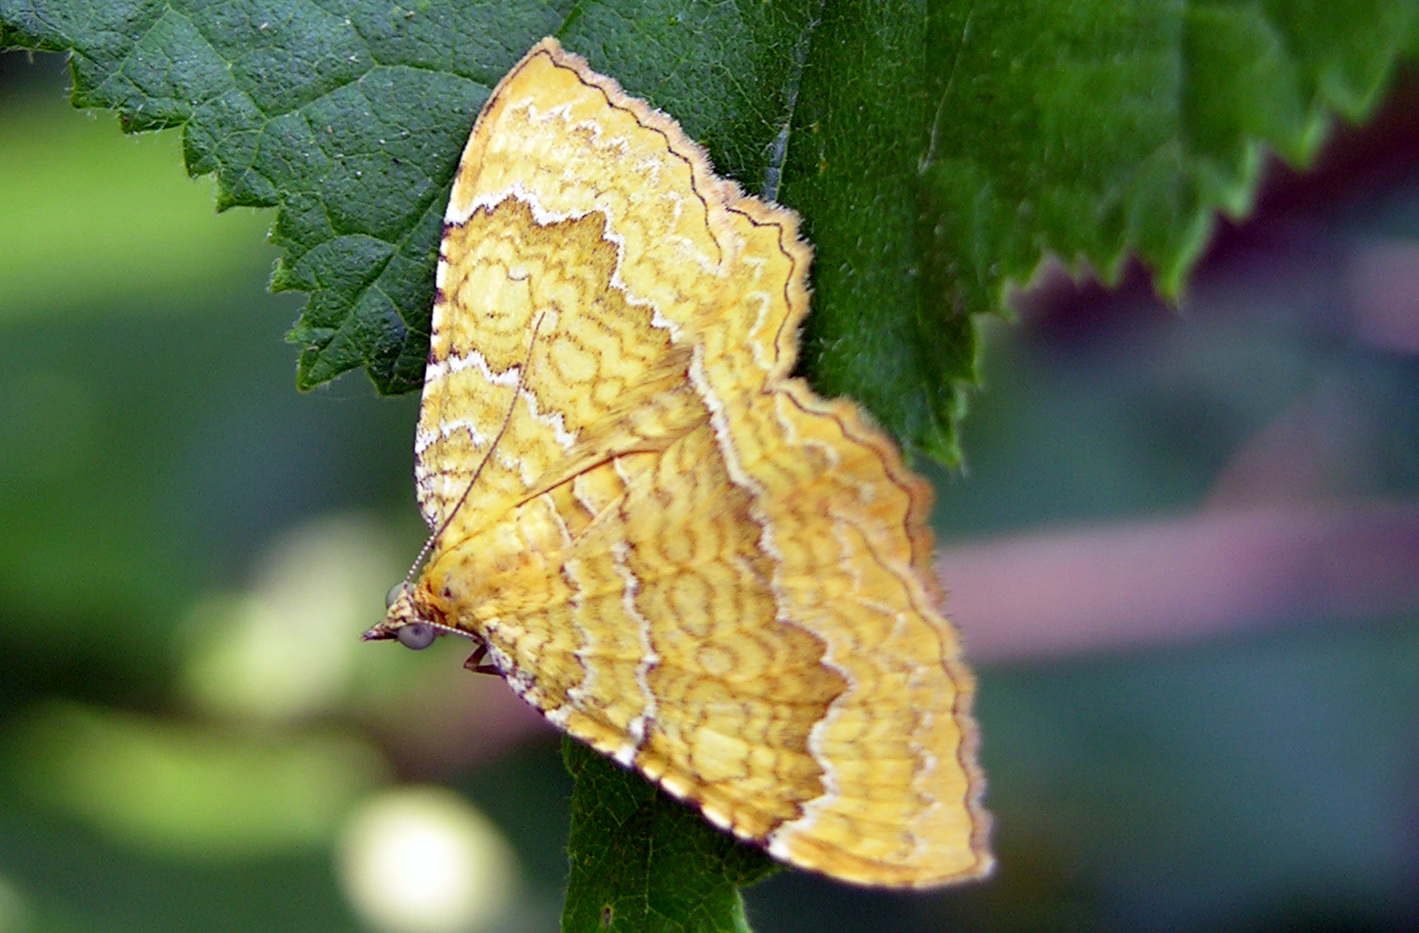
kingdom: Animalia
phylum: Arthropoda
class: Insecta
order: Lepidoptera
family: Geometridae
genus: Camptogramma
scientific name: Camptogramma bilineata
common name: Yellow shell
